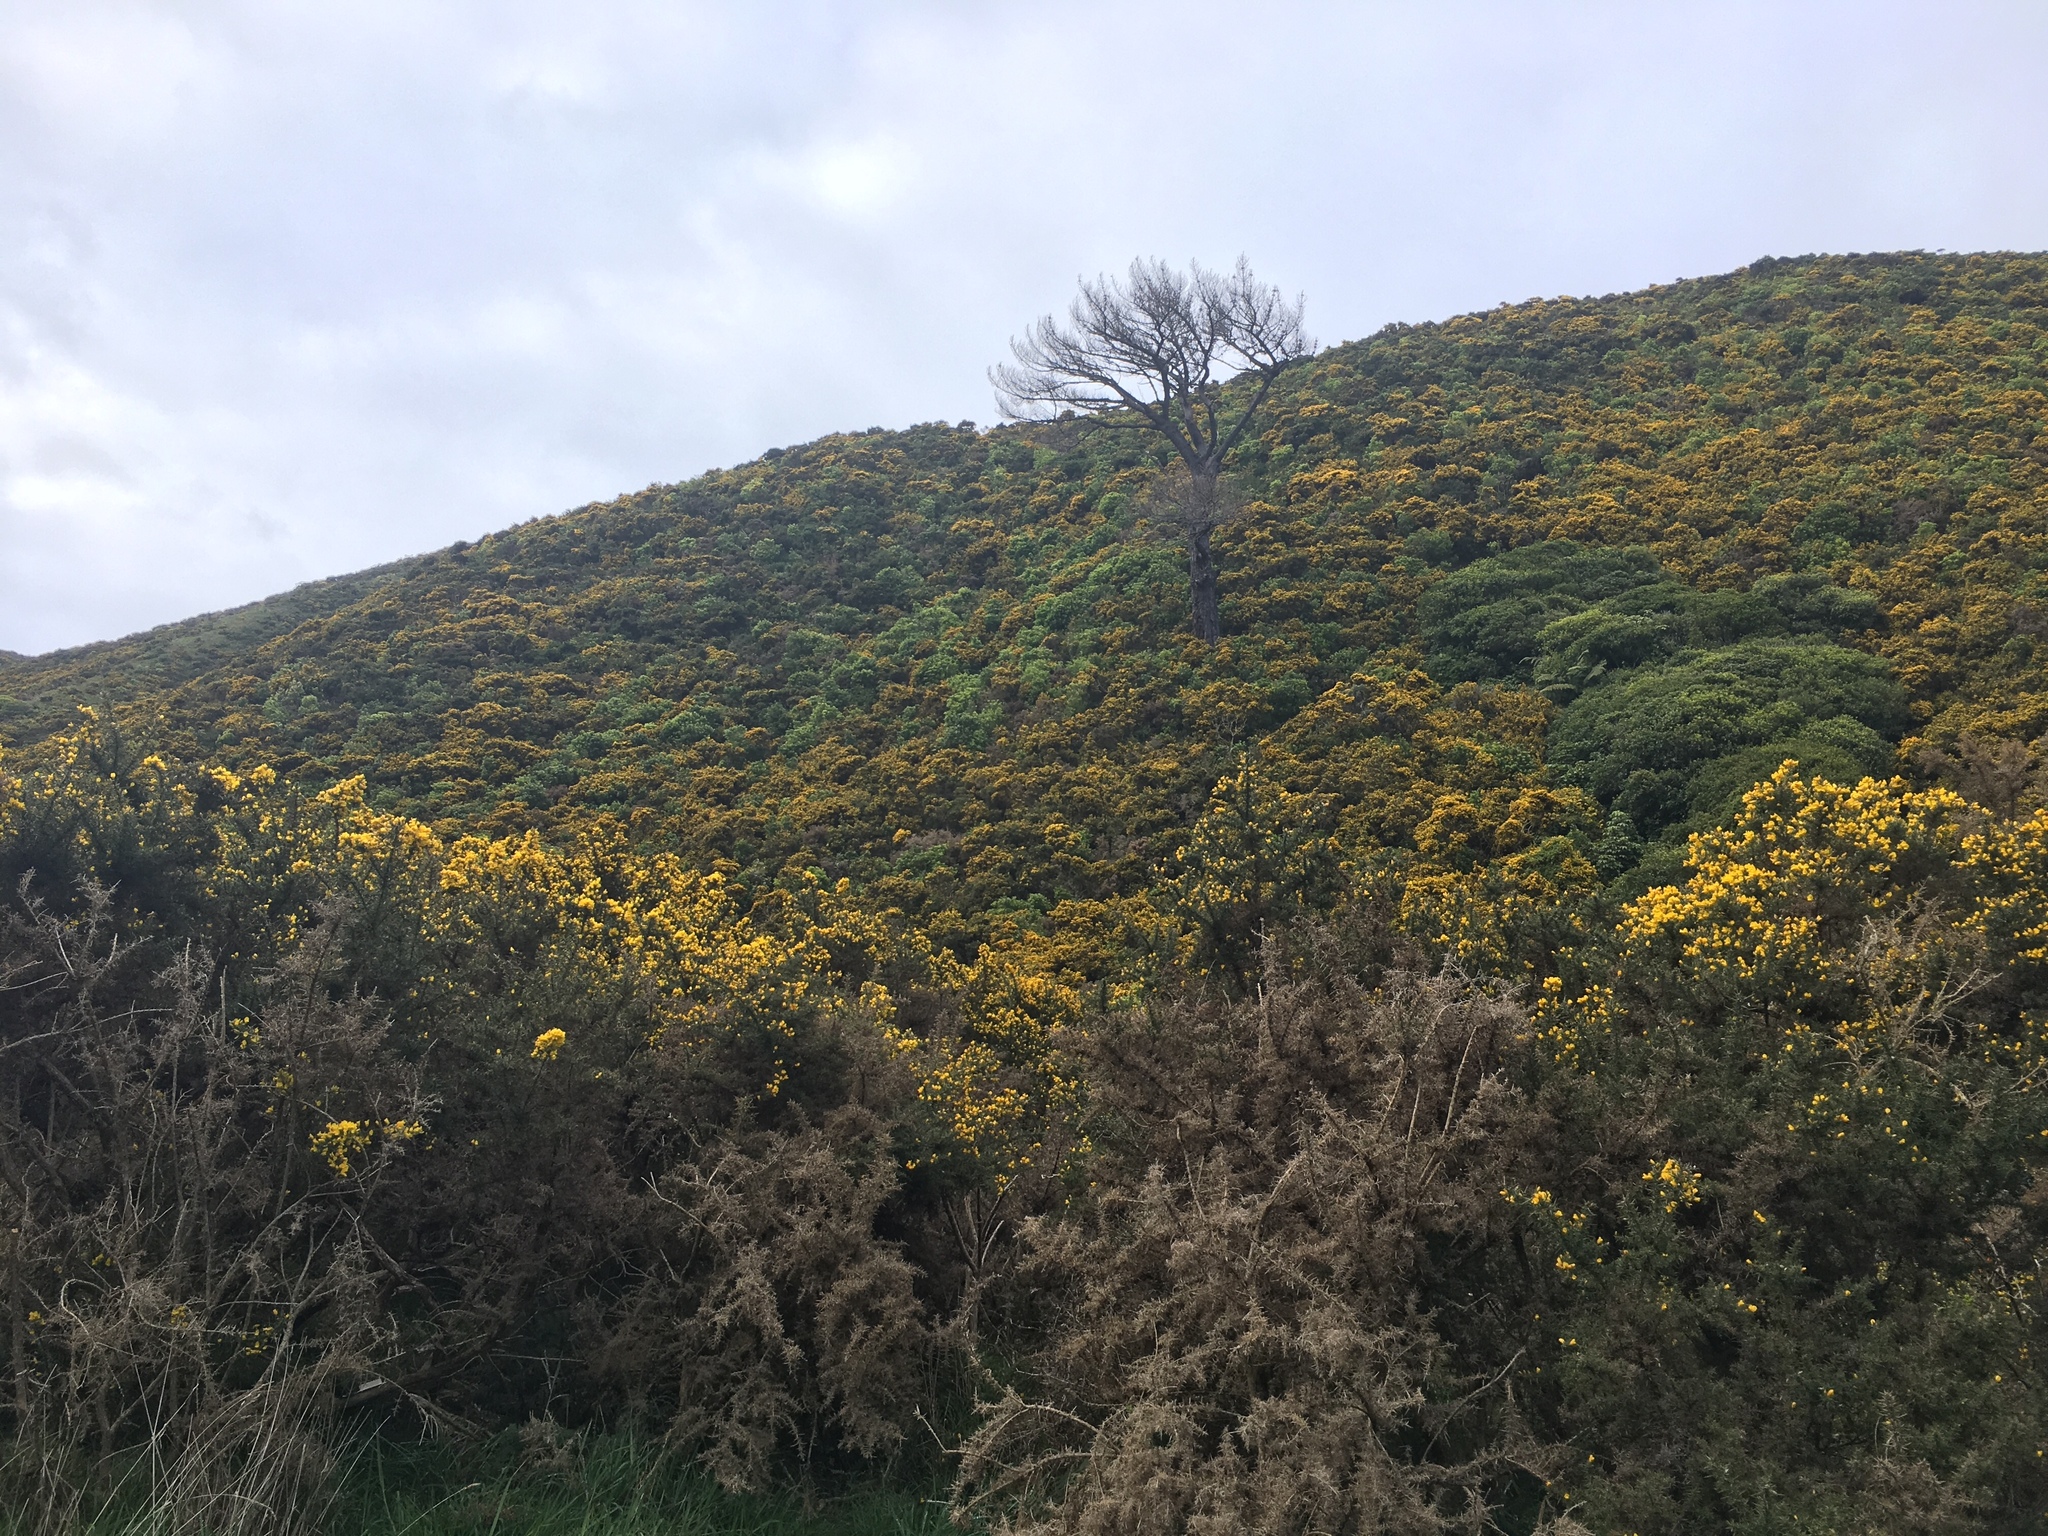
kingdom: Plantae
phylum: Tracheophyta
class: Magnoliopsida
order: Fabales
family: Fabaceae
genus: Ulex
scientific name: Ulex europaeus
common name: Common gorse
